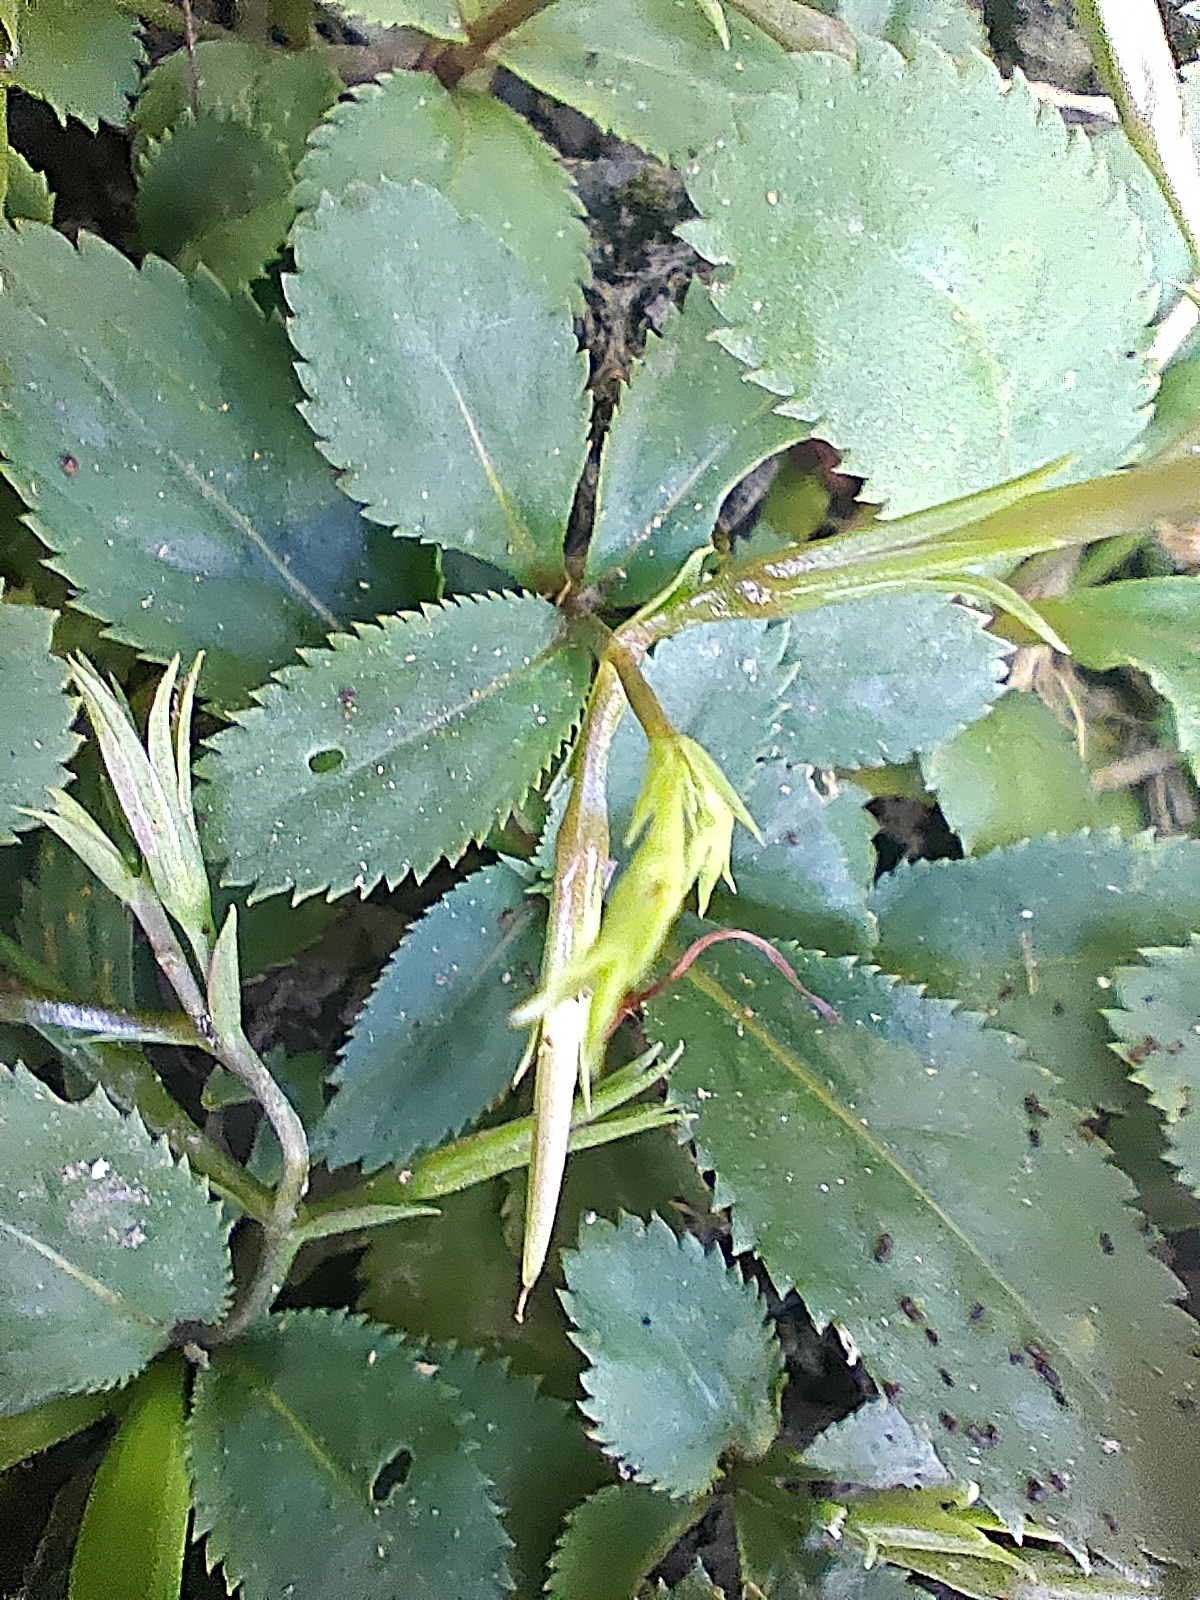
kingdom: Plantae
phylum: Tracheophyta
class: Magnoliopsida
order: Lamiales
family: Linderniaceae
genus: Bonnaya
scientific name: Bonnaya ruelloides
